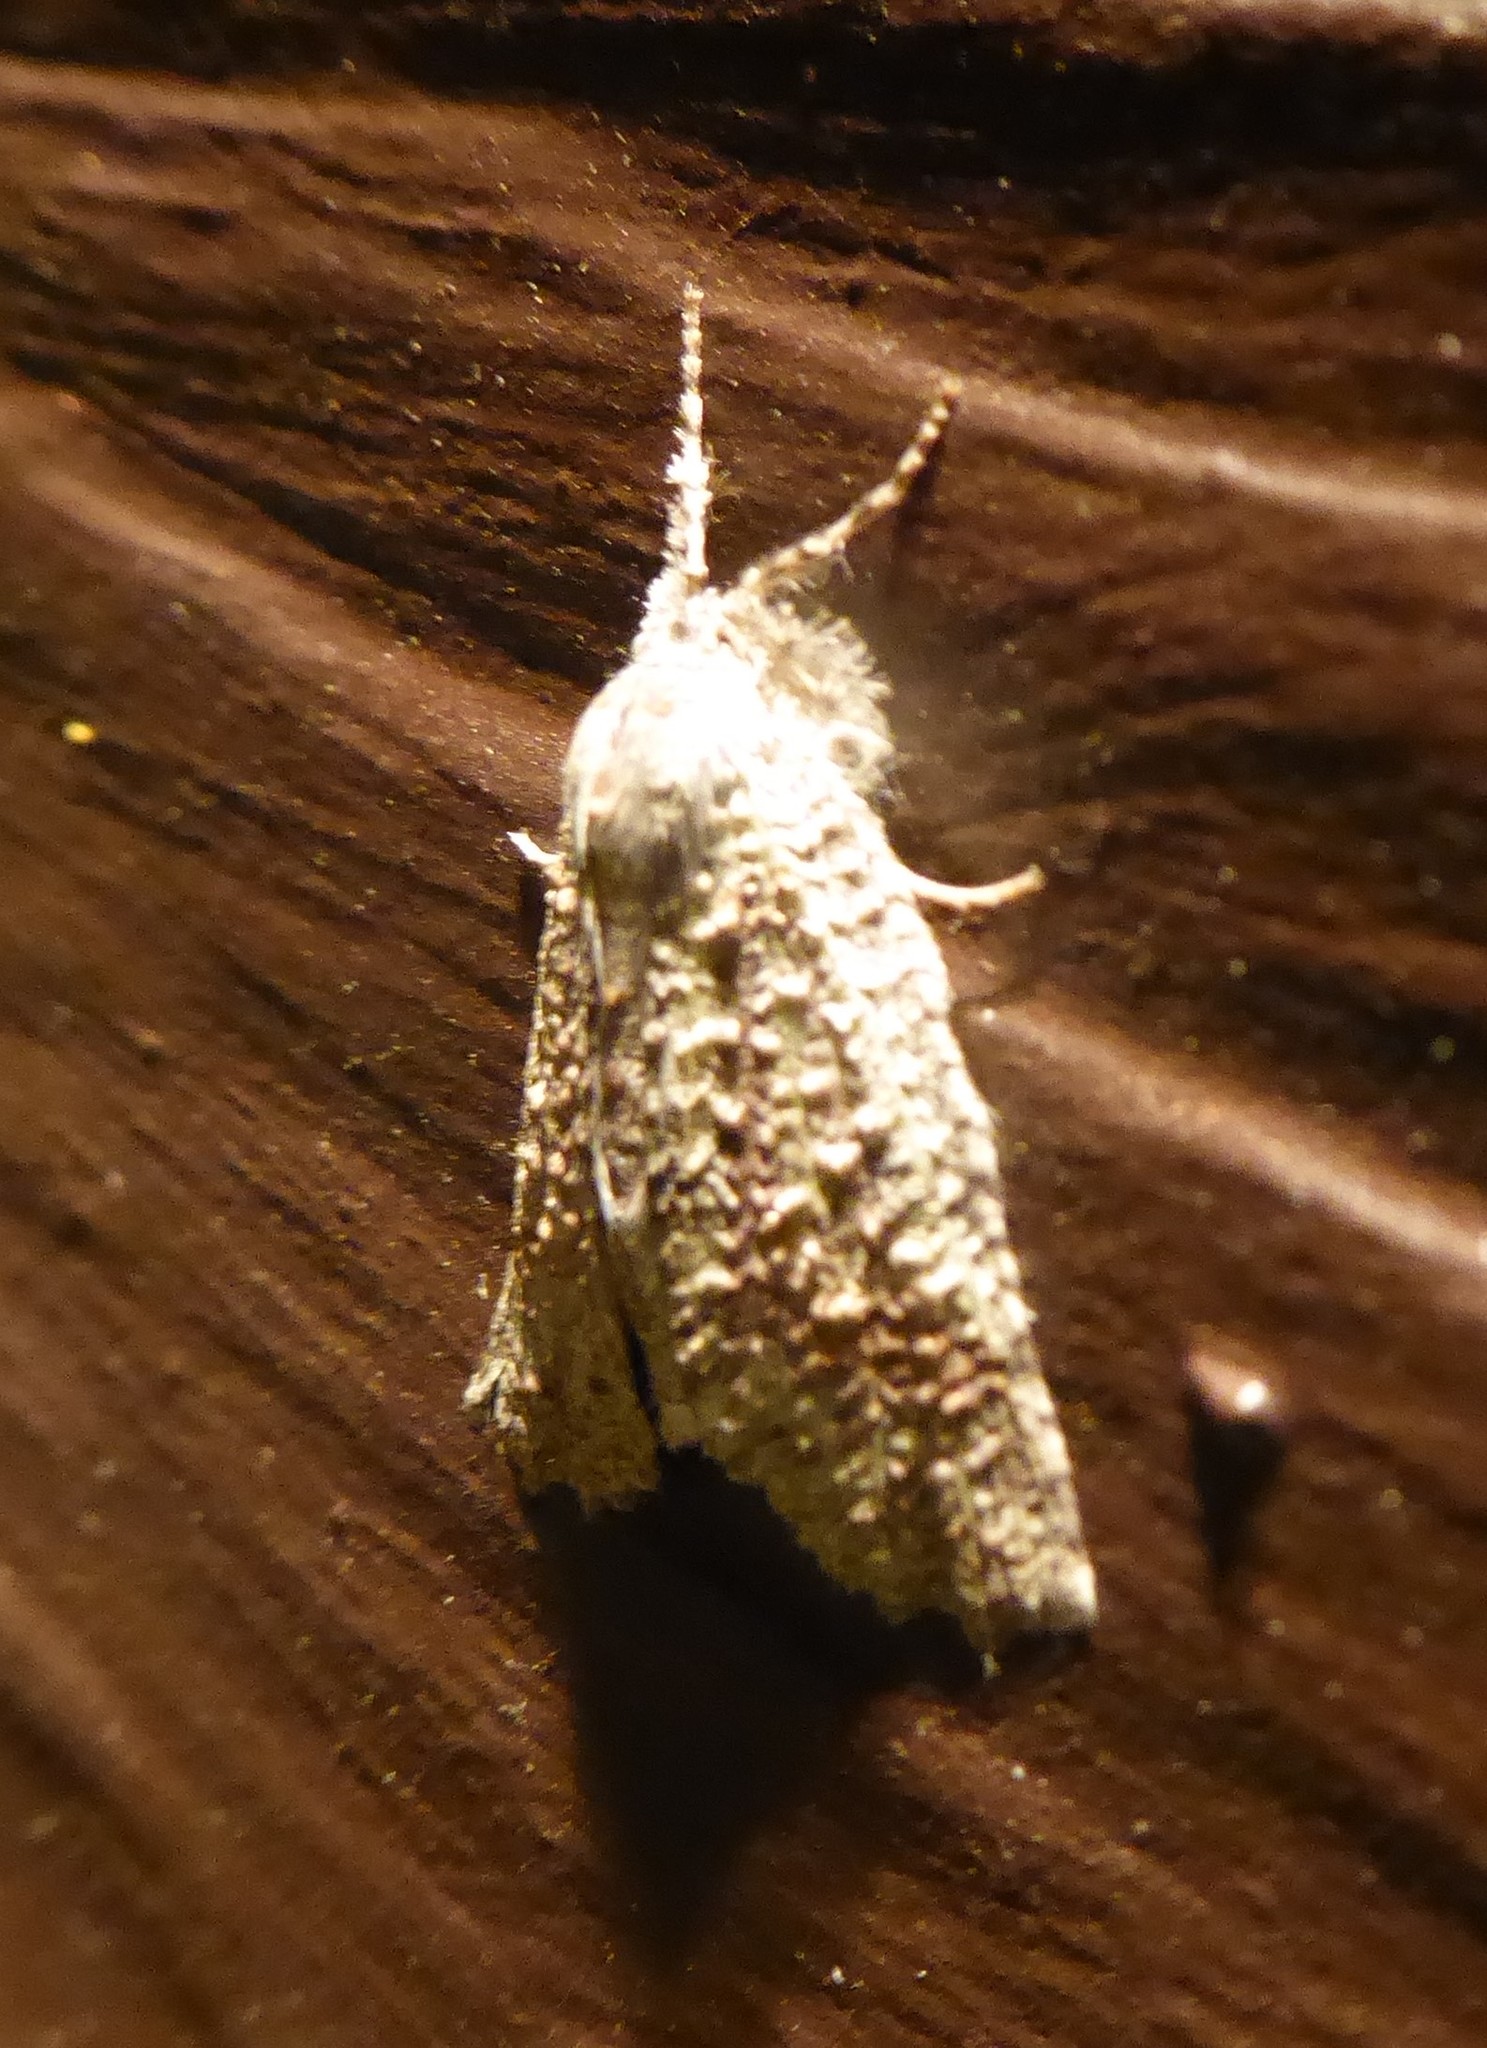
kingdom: Animalia
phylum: Arthropoda
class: Insecta
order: Lepidoptera
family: Geometridae
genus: Declana
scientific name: Declana floccosa
